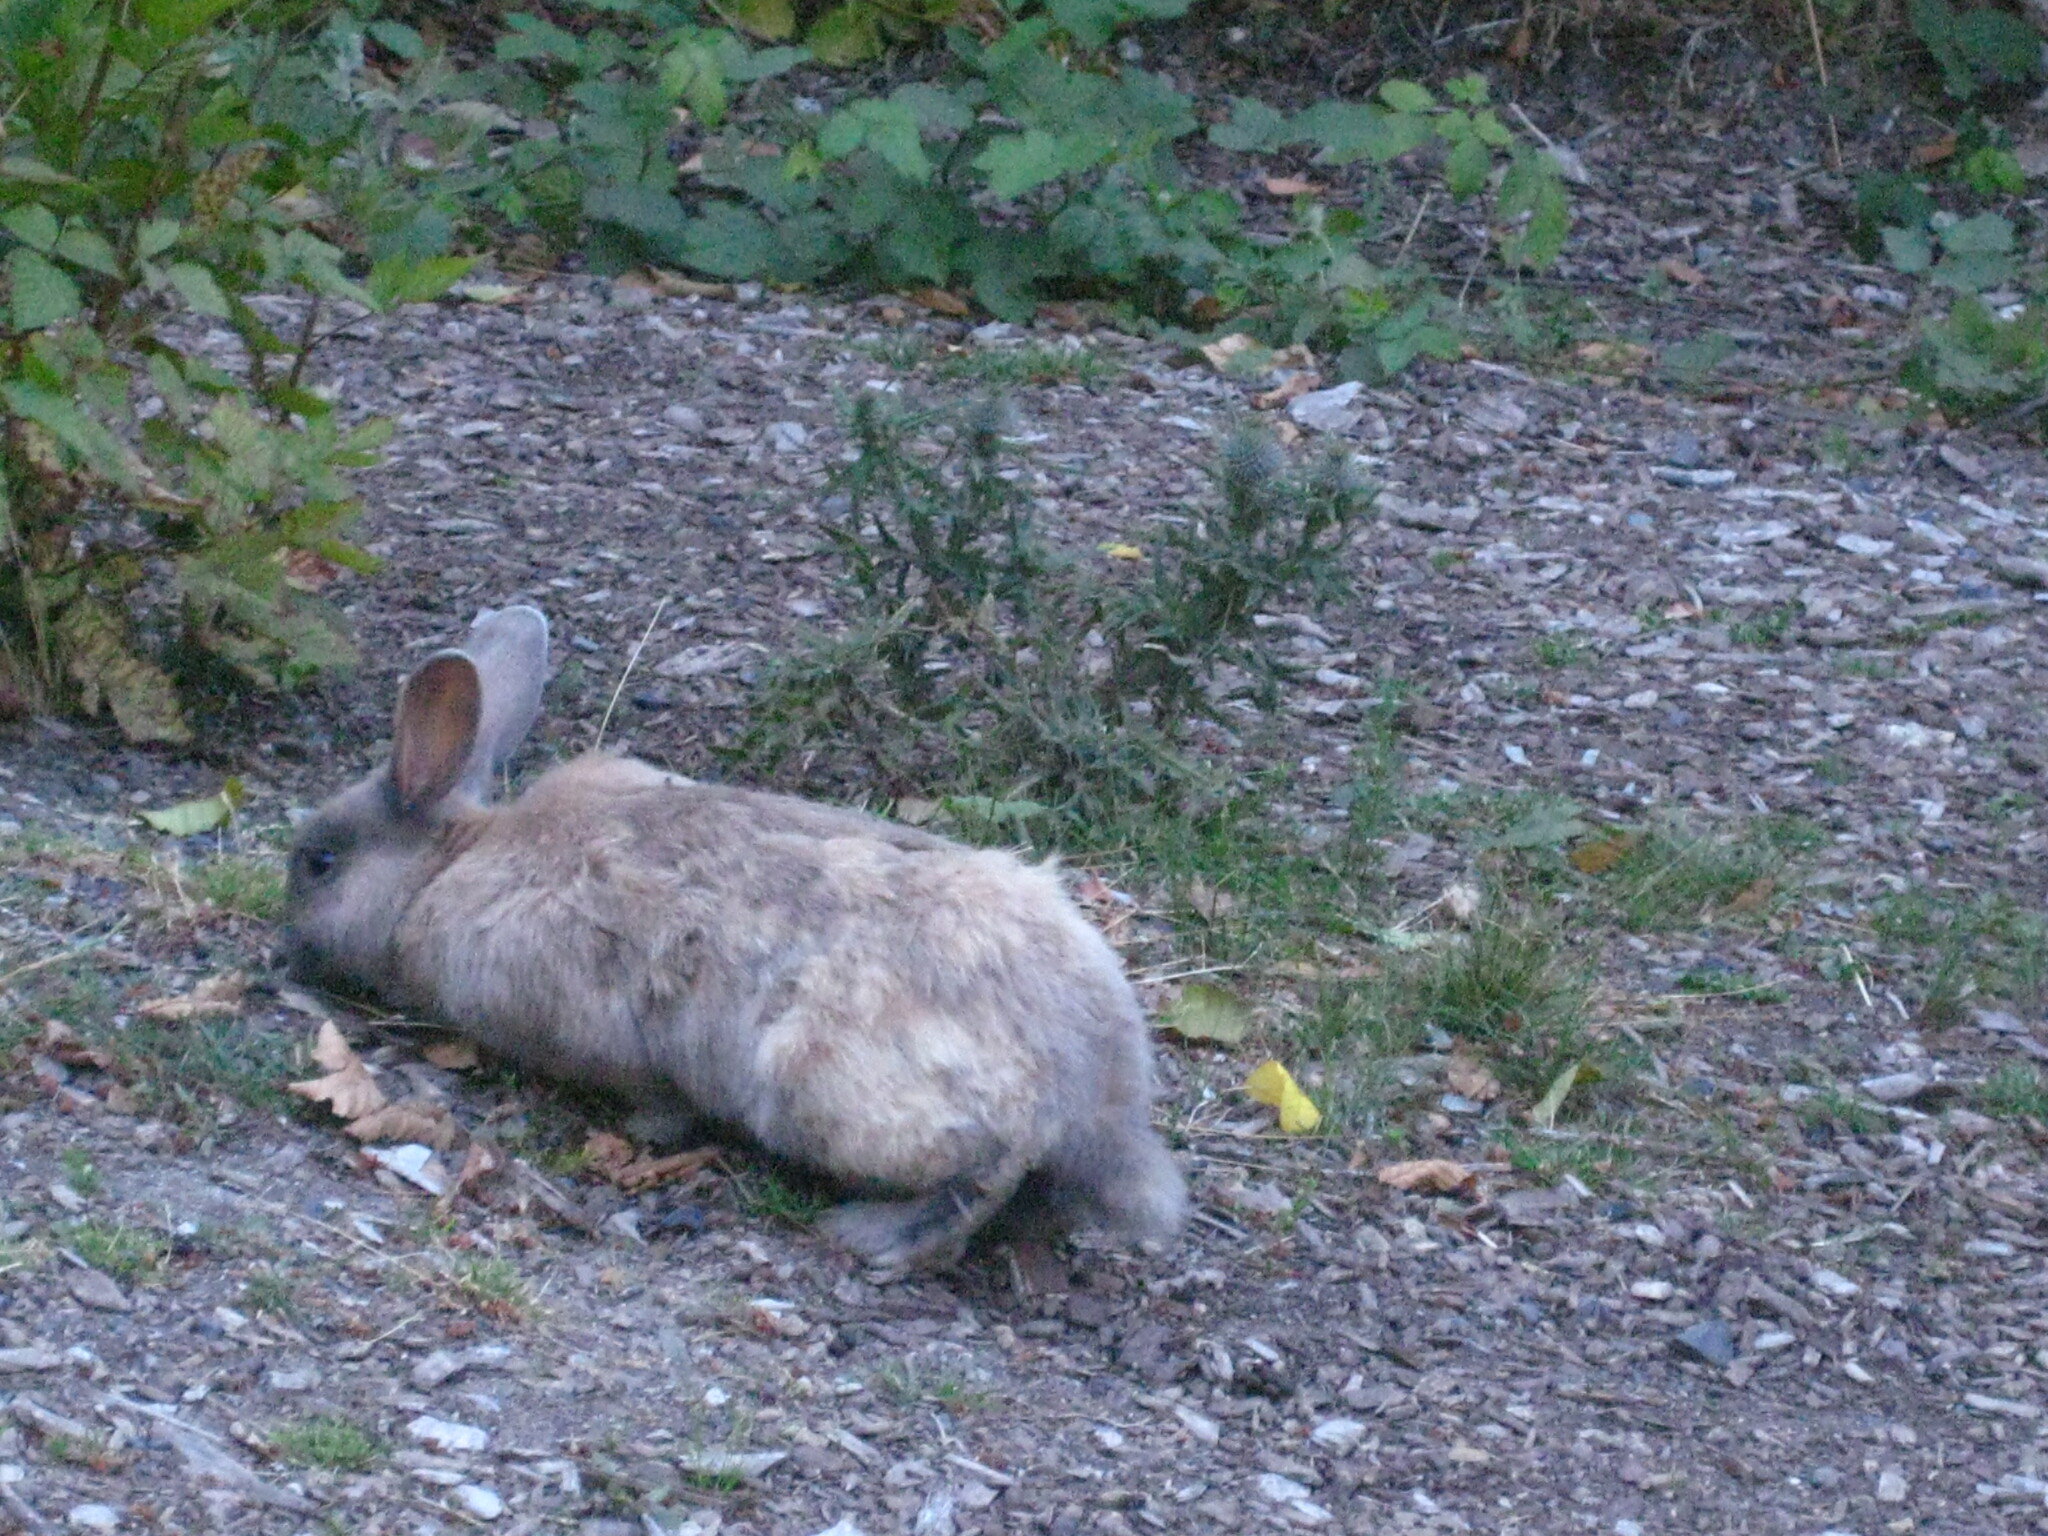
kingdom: Animalia
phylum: Chordata
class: Mammalia
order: Lagomorpha
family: Leporidae
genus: Oryctolagus
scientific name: Oryctolagus cuniculus
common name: European rabbit
